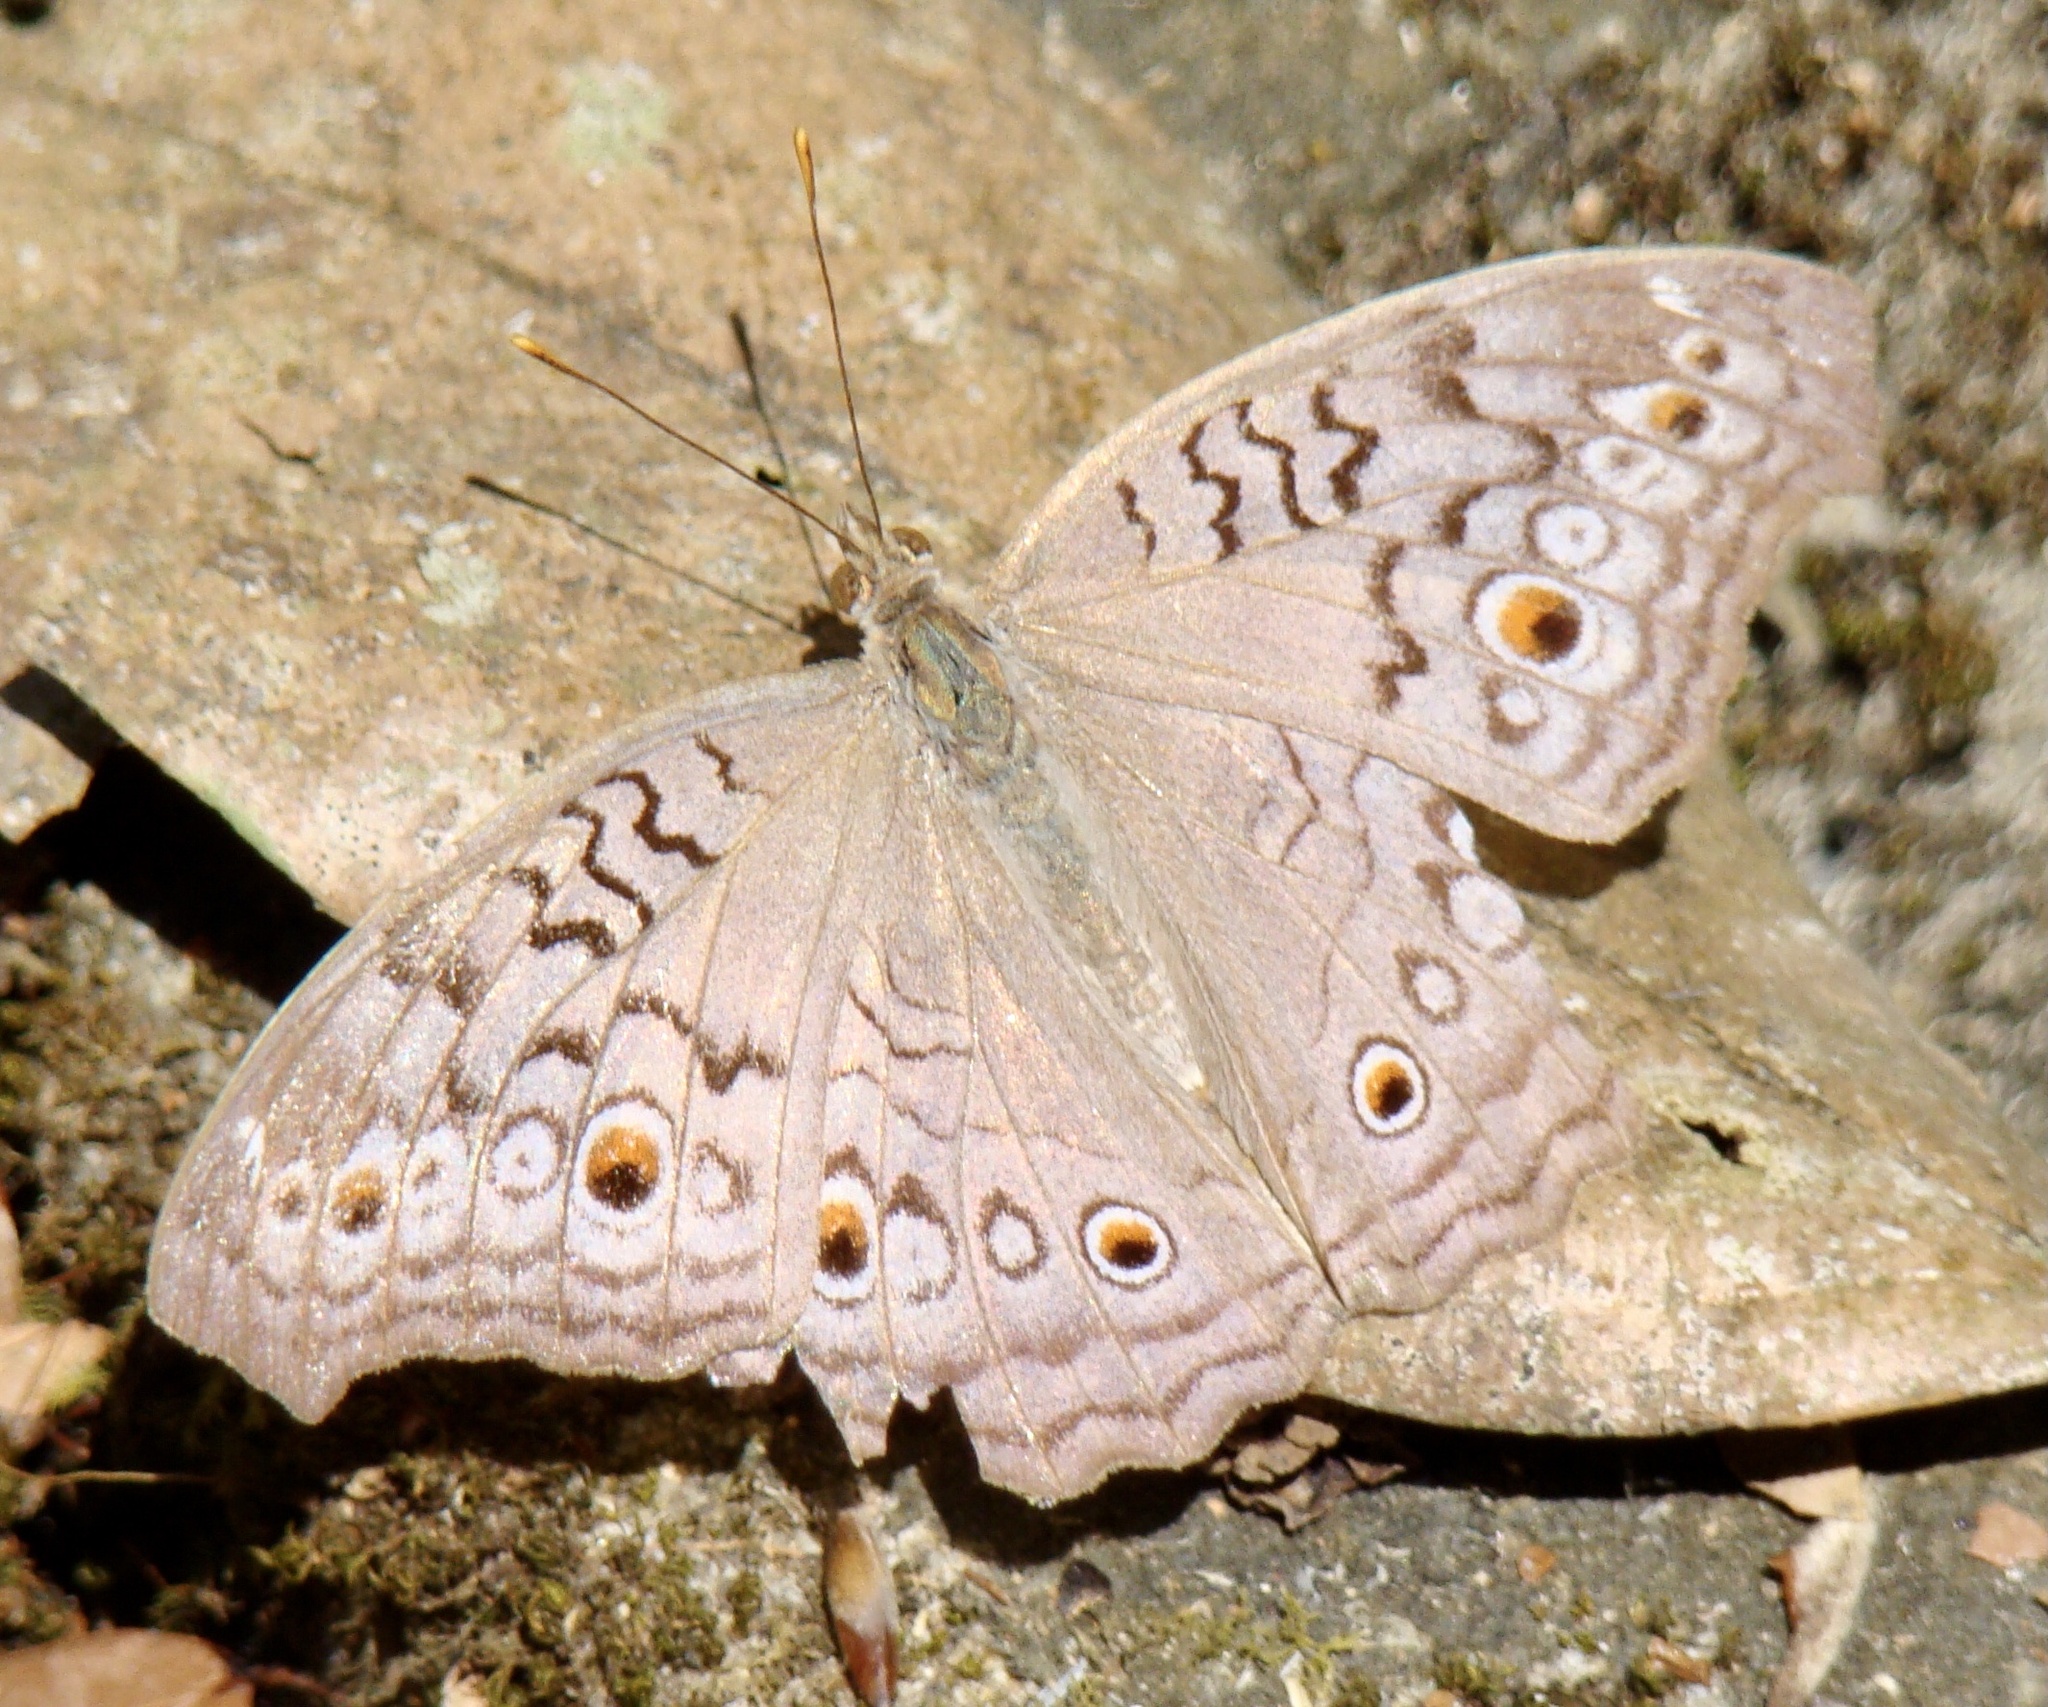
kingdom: Animalia
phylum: Arthropoda
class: Insecta
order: Lepidoptera
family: Nymphalidae
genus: Junonia
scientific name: Junonia atlites
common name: Grey pansy
